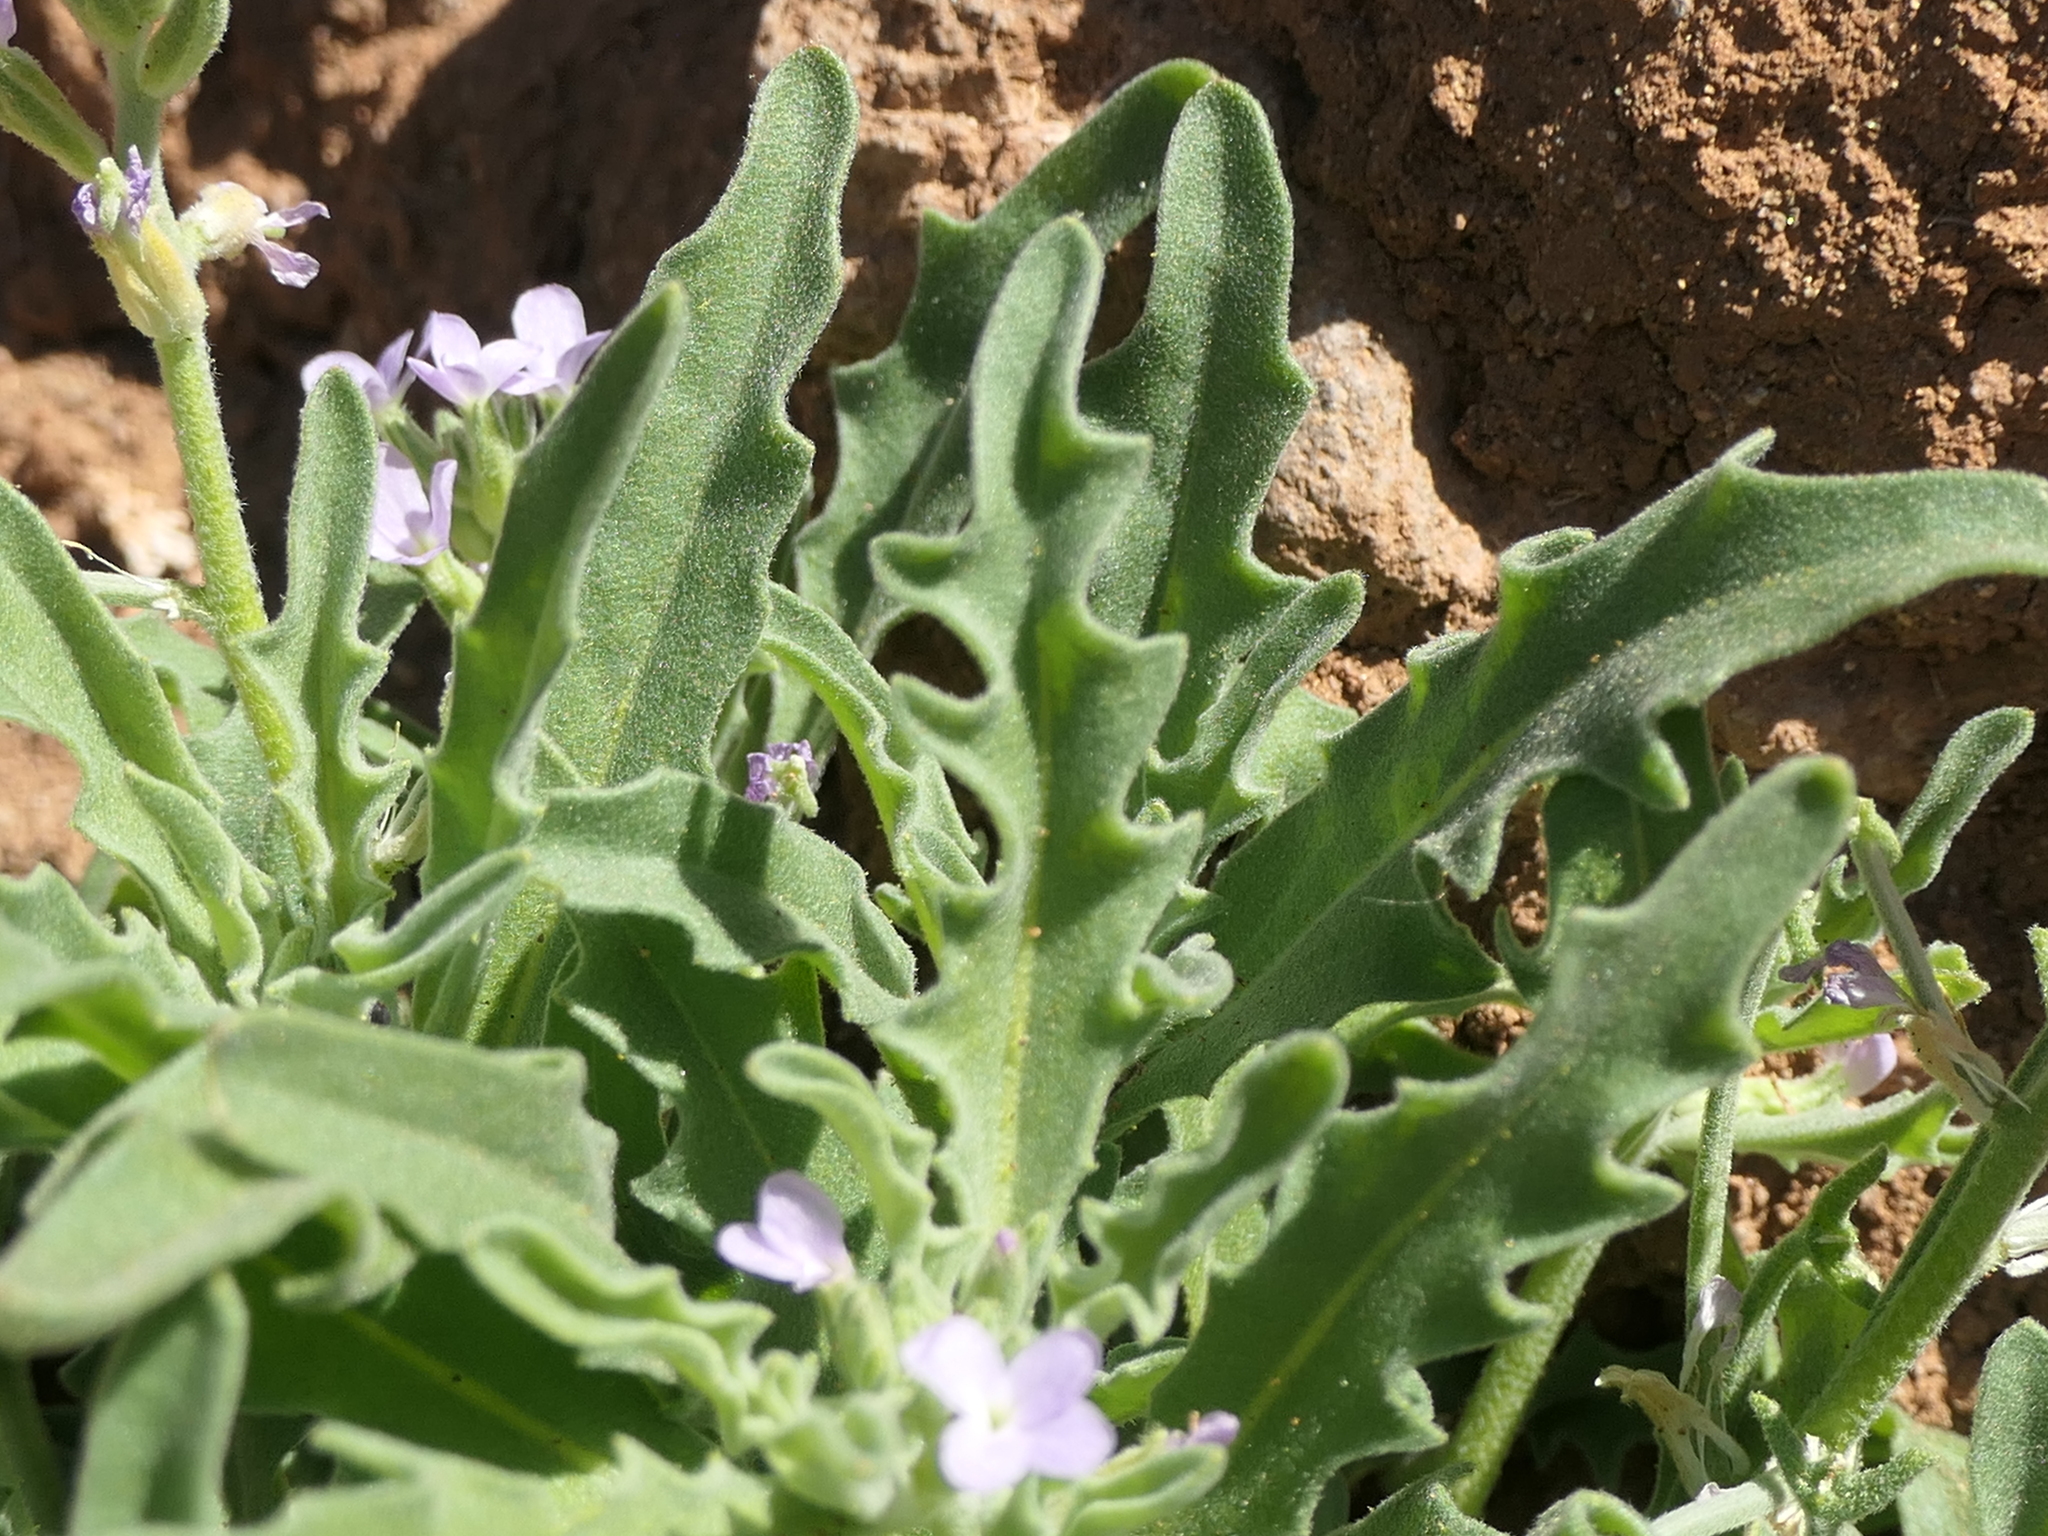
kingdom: Plantae
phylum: Tracheophyta
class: Magnoliopsida
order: Brassicales
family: Brassicaceae
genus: Matthiola
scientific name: Matthiola parviflora
